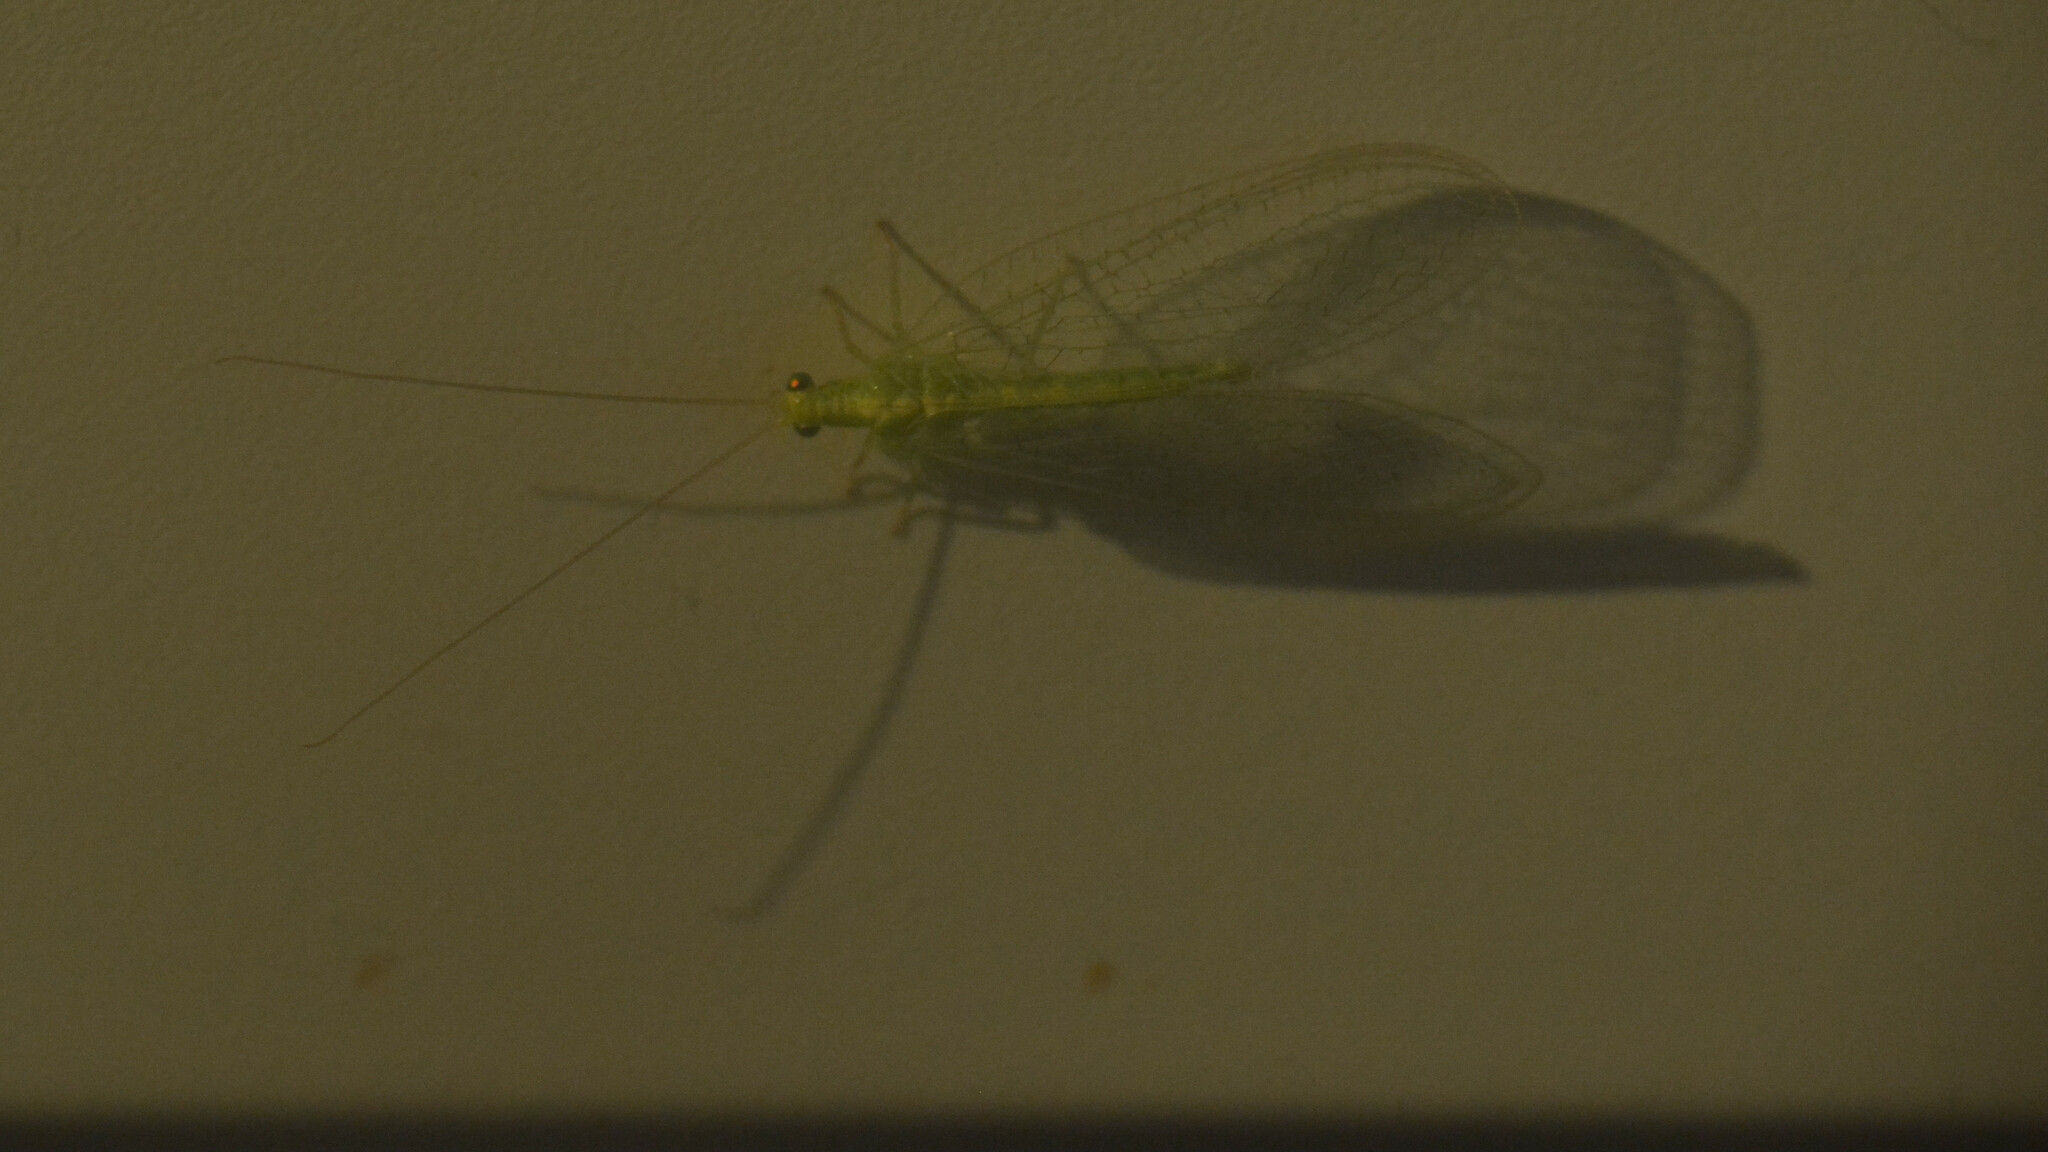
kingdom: Animalia
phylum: Arthropoda
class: Insecta
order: Neuroptera
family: Chrysopidae
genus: Chrysoperla
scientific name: Chrysoperla
